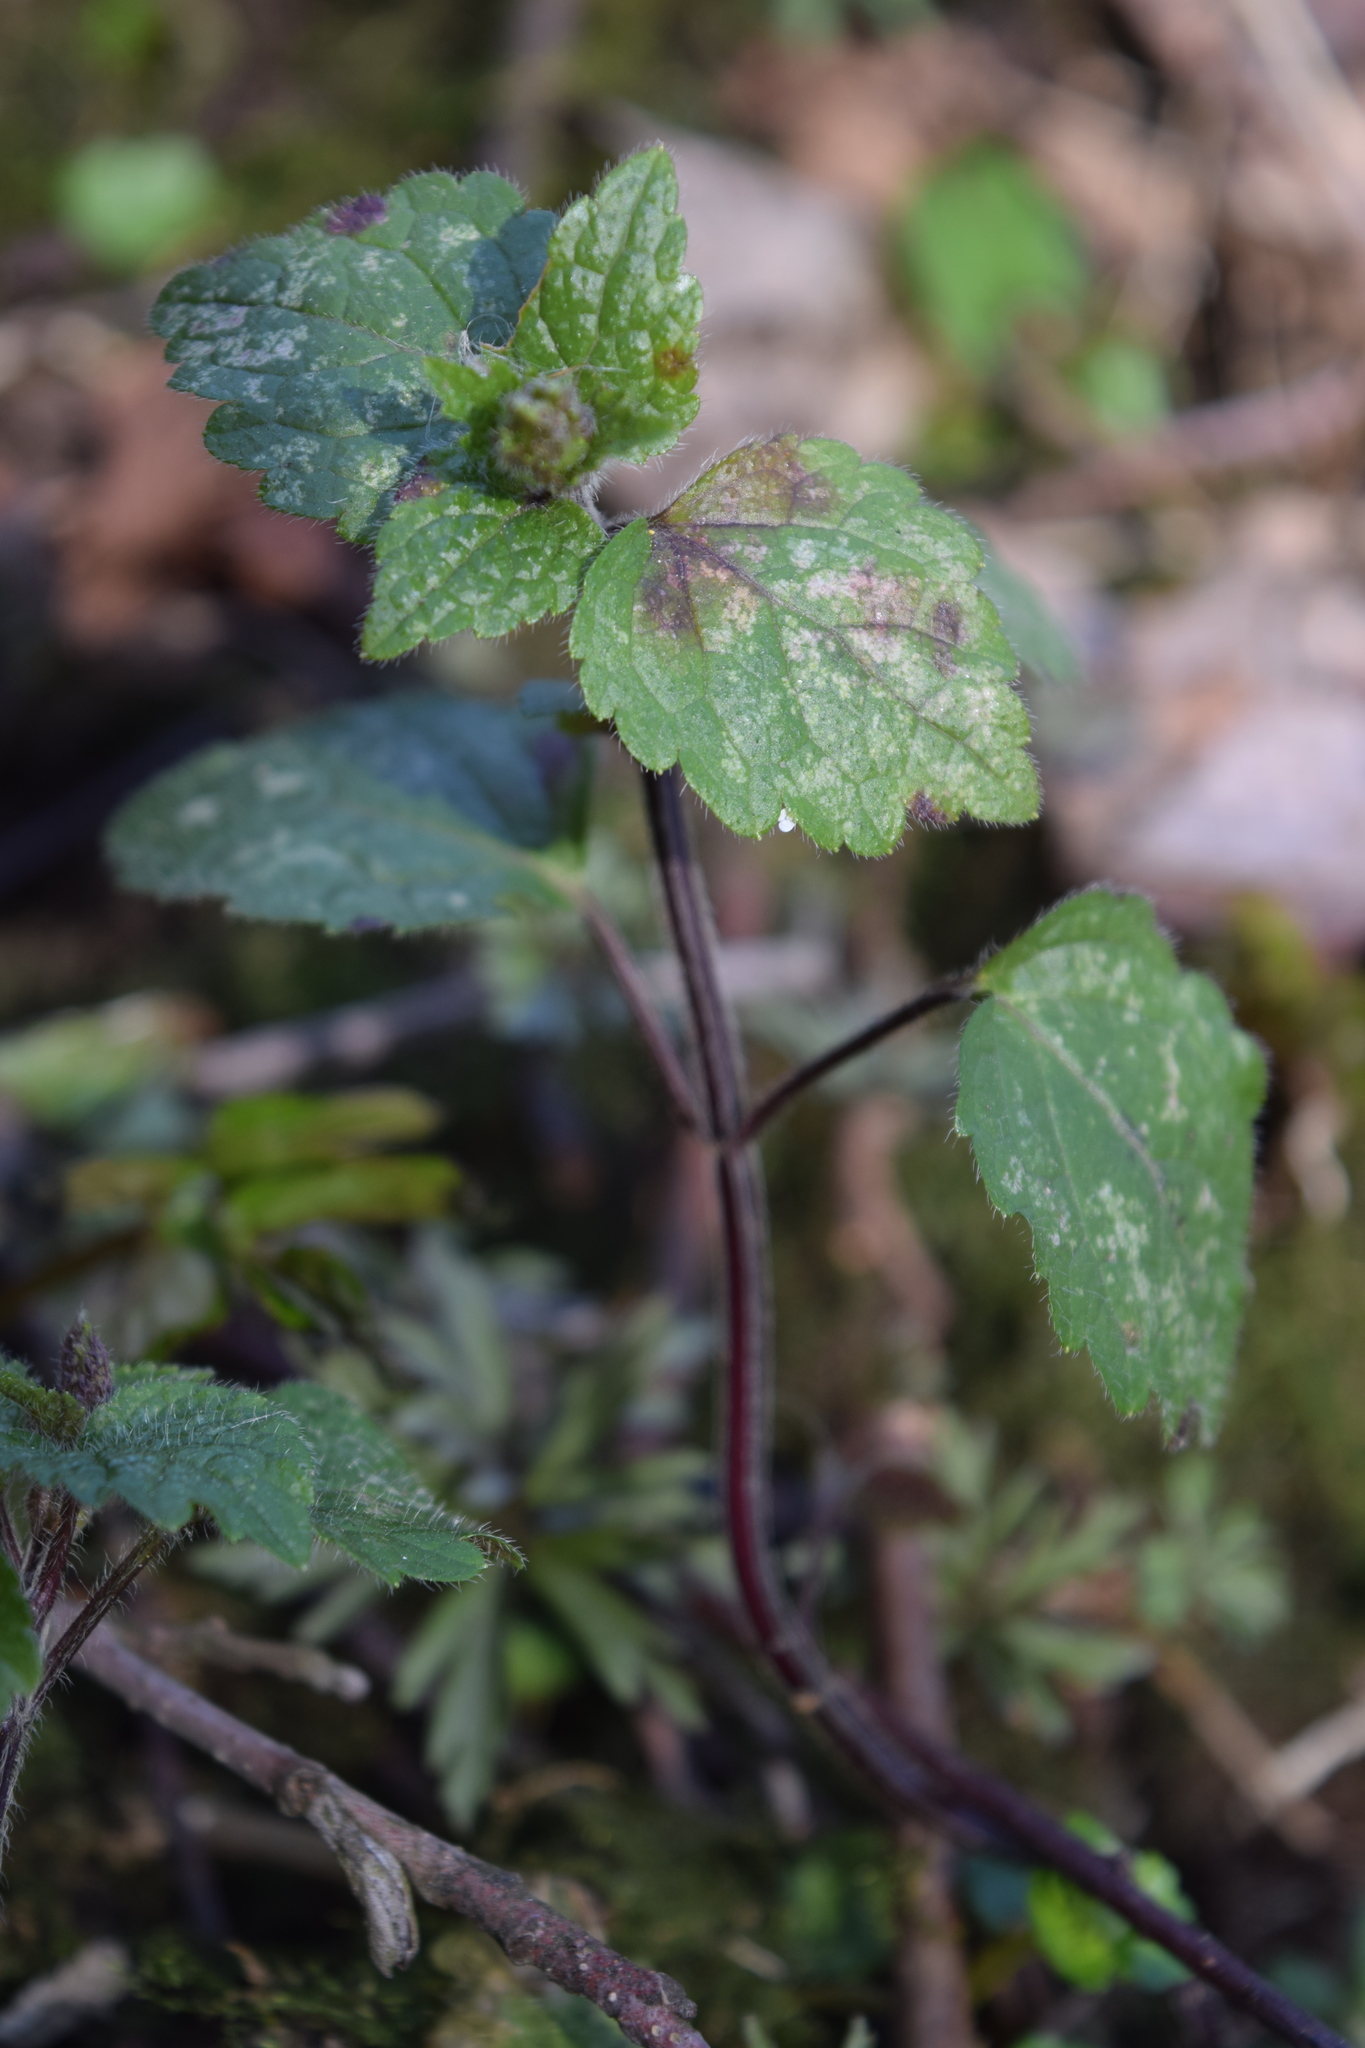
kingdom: Plantae
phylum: Tracheophyta
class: Magnoliopsida
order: Lamiales
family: Lamiaceae
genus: Lamium
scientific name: Lamium galeobdolon
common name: Yellow archangel
